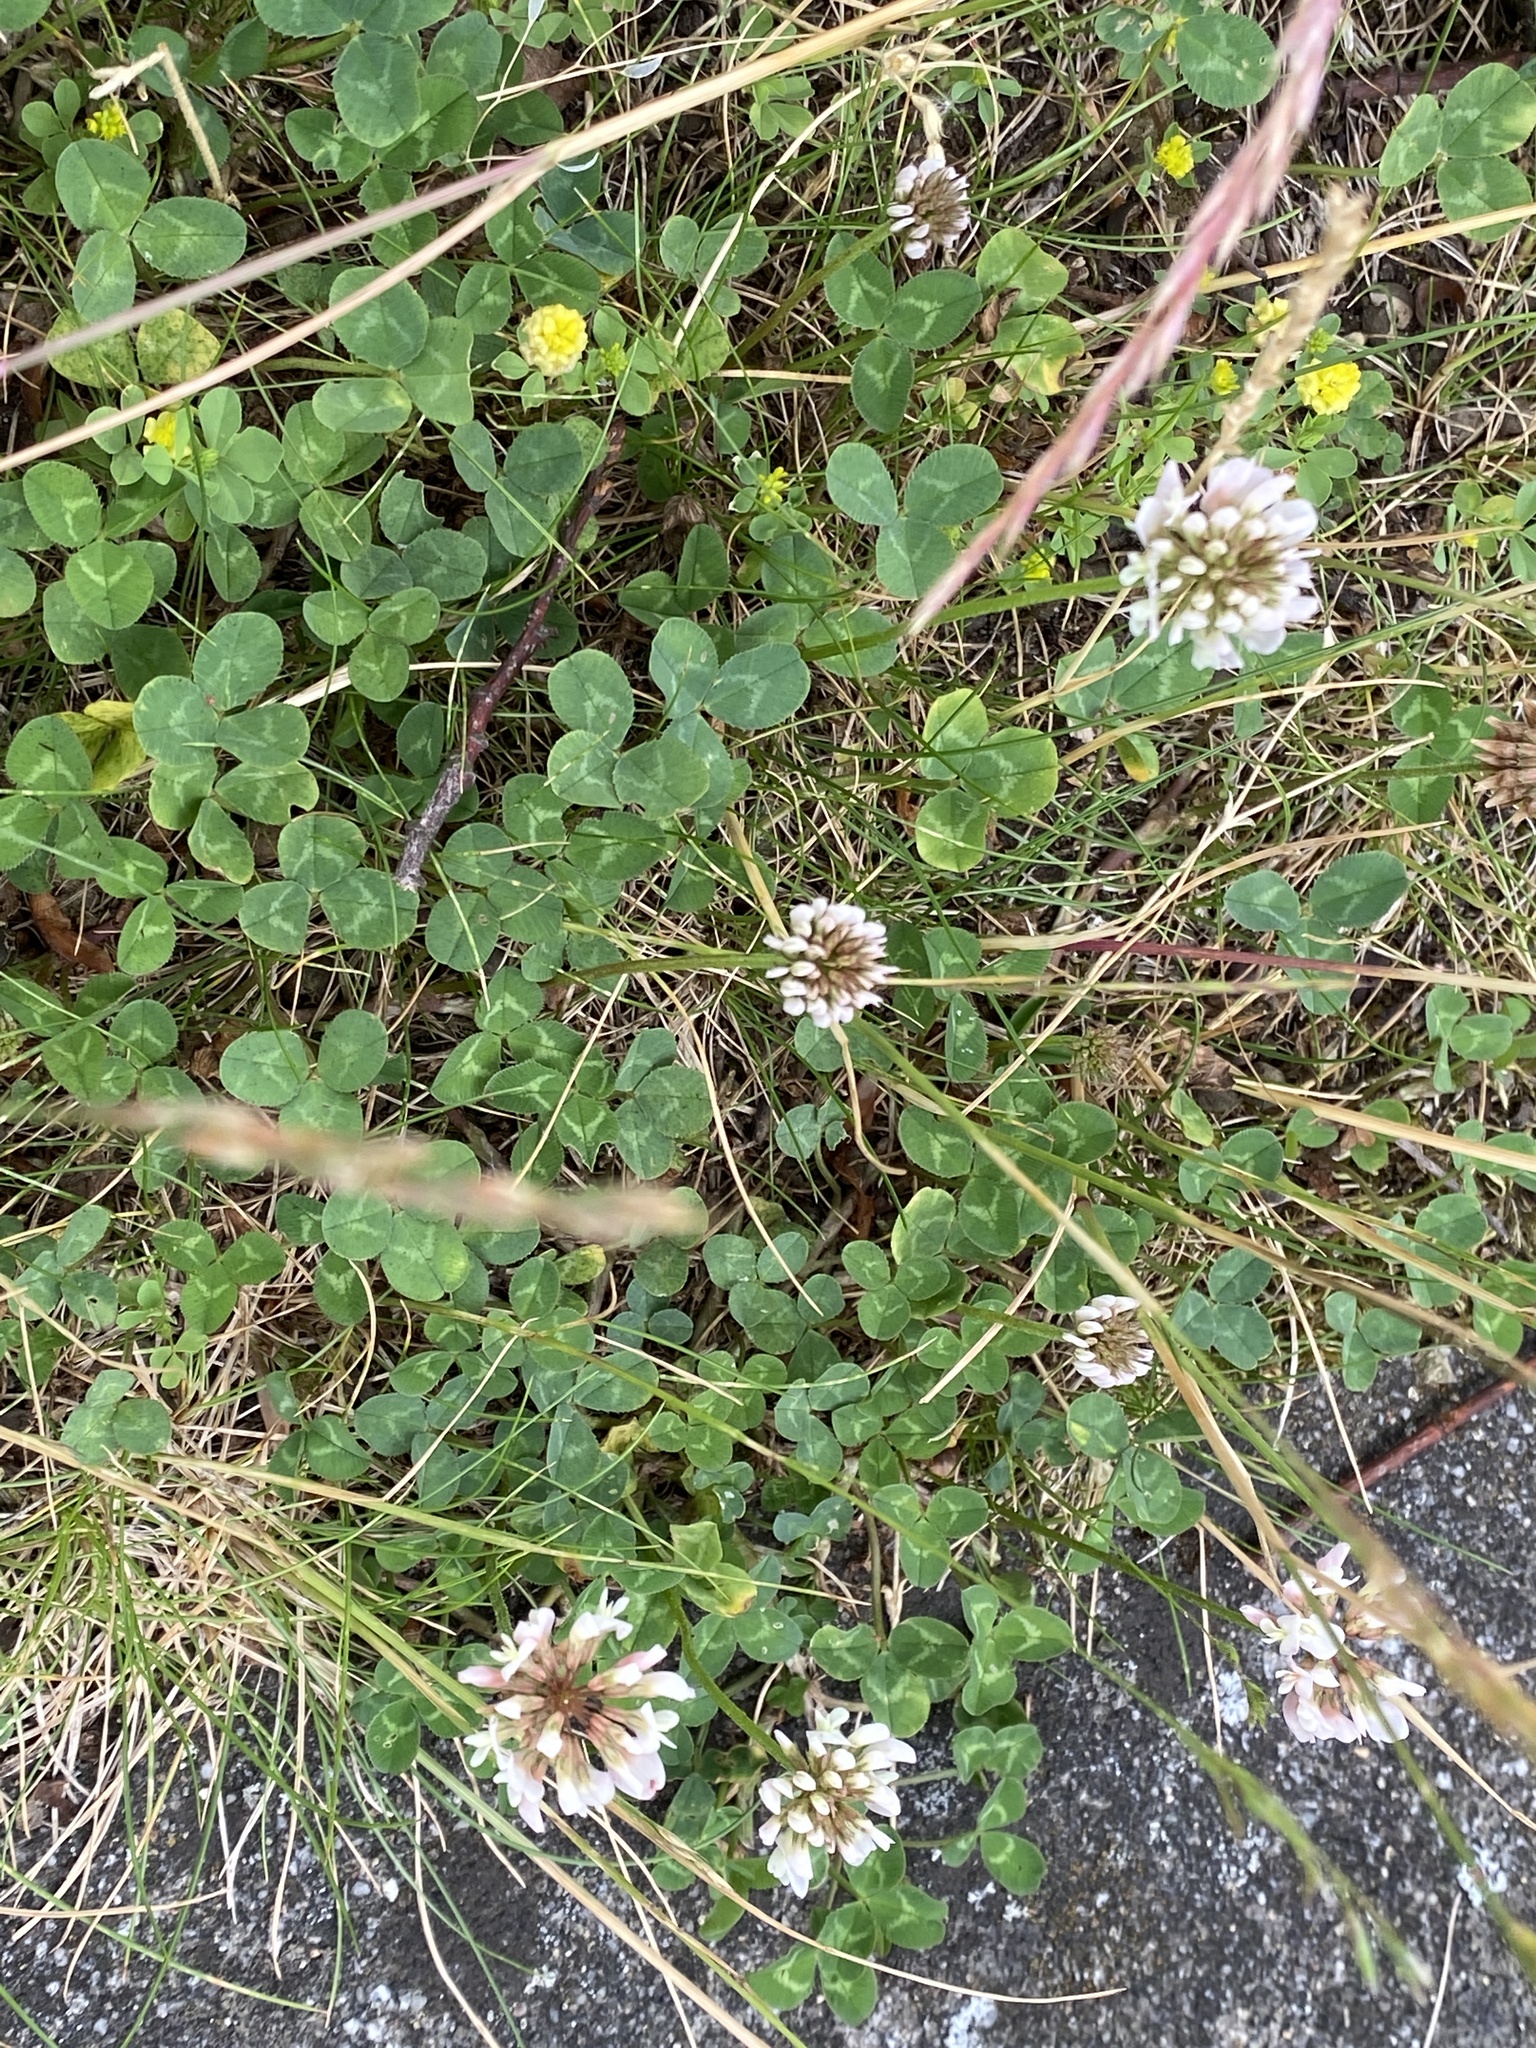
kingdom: Plantae
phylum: Tracheophyta
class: Magnoliopsida
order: Fabales
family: Fabaceae
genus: Trifolium
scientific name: Trifolium repens
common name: White clover
